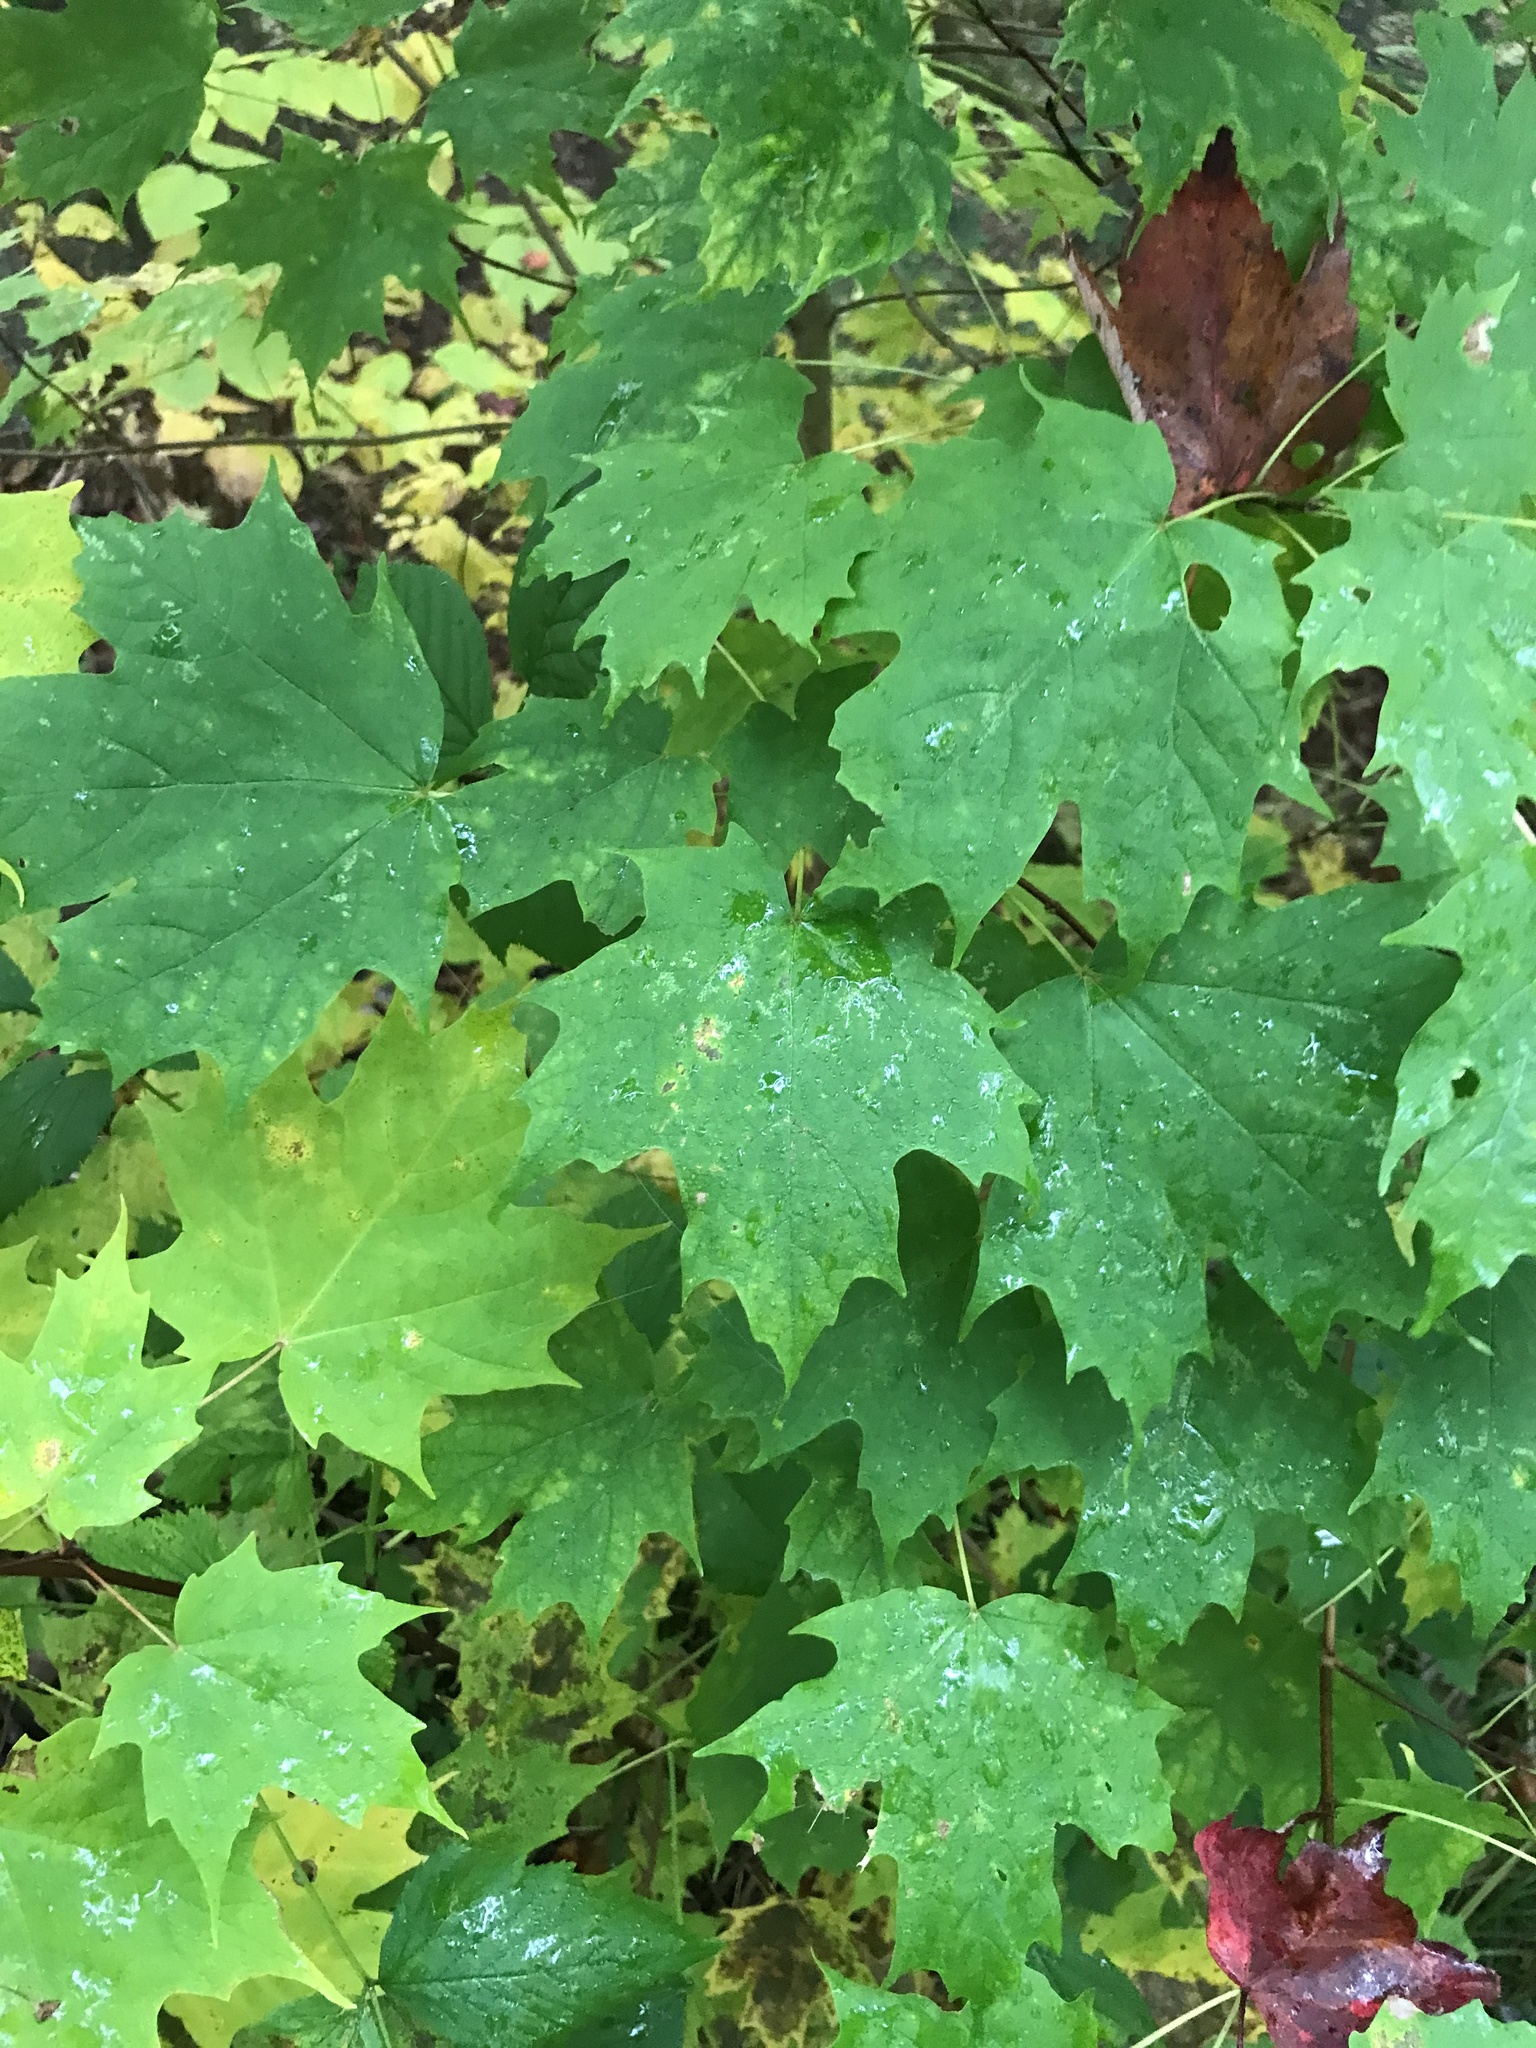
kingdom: Plantae
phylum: Tracheophyta
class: Magnoliopsida
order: Sapindales
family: Sapindaceae
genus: Acer
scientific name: Acer saccharum
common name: Sugar maple
